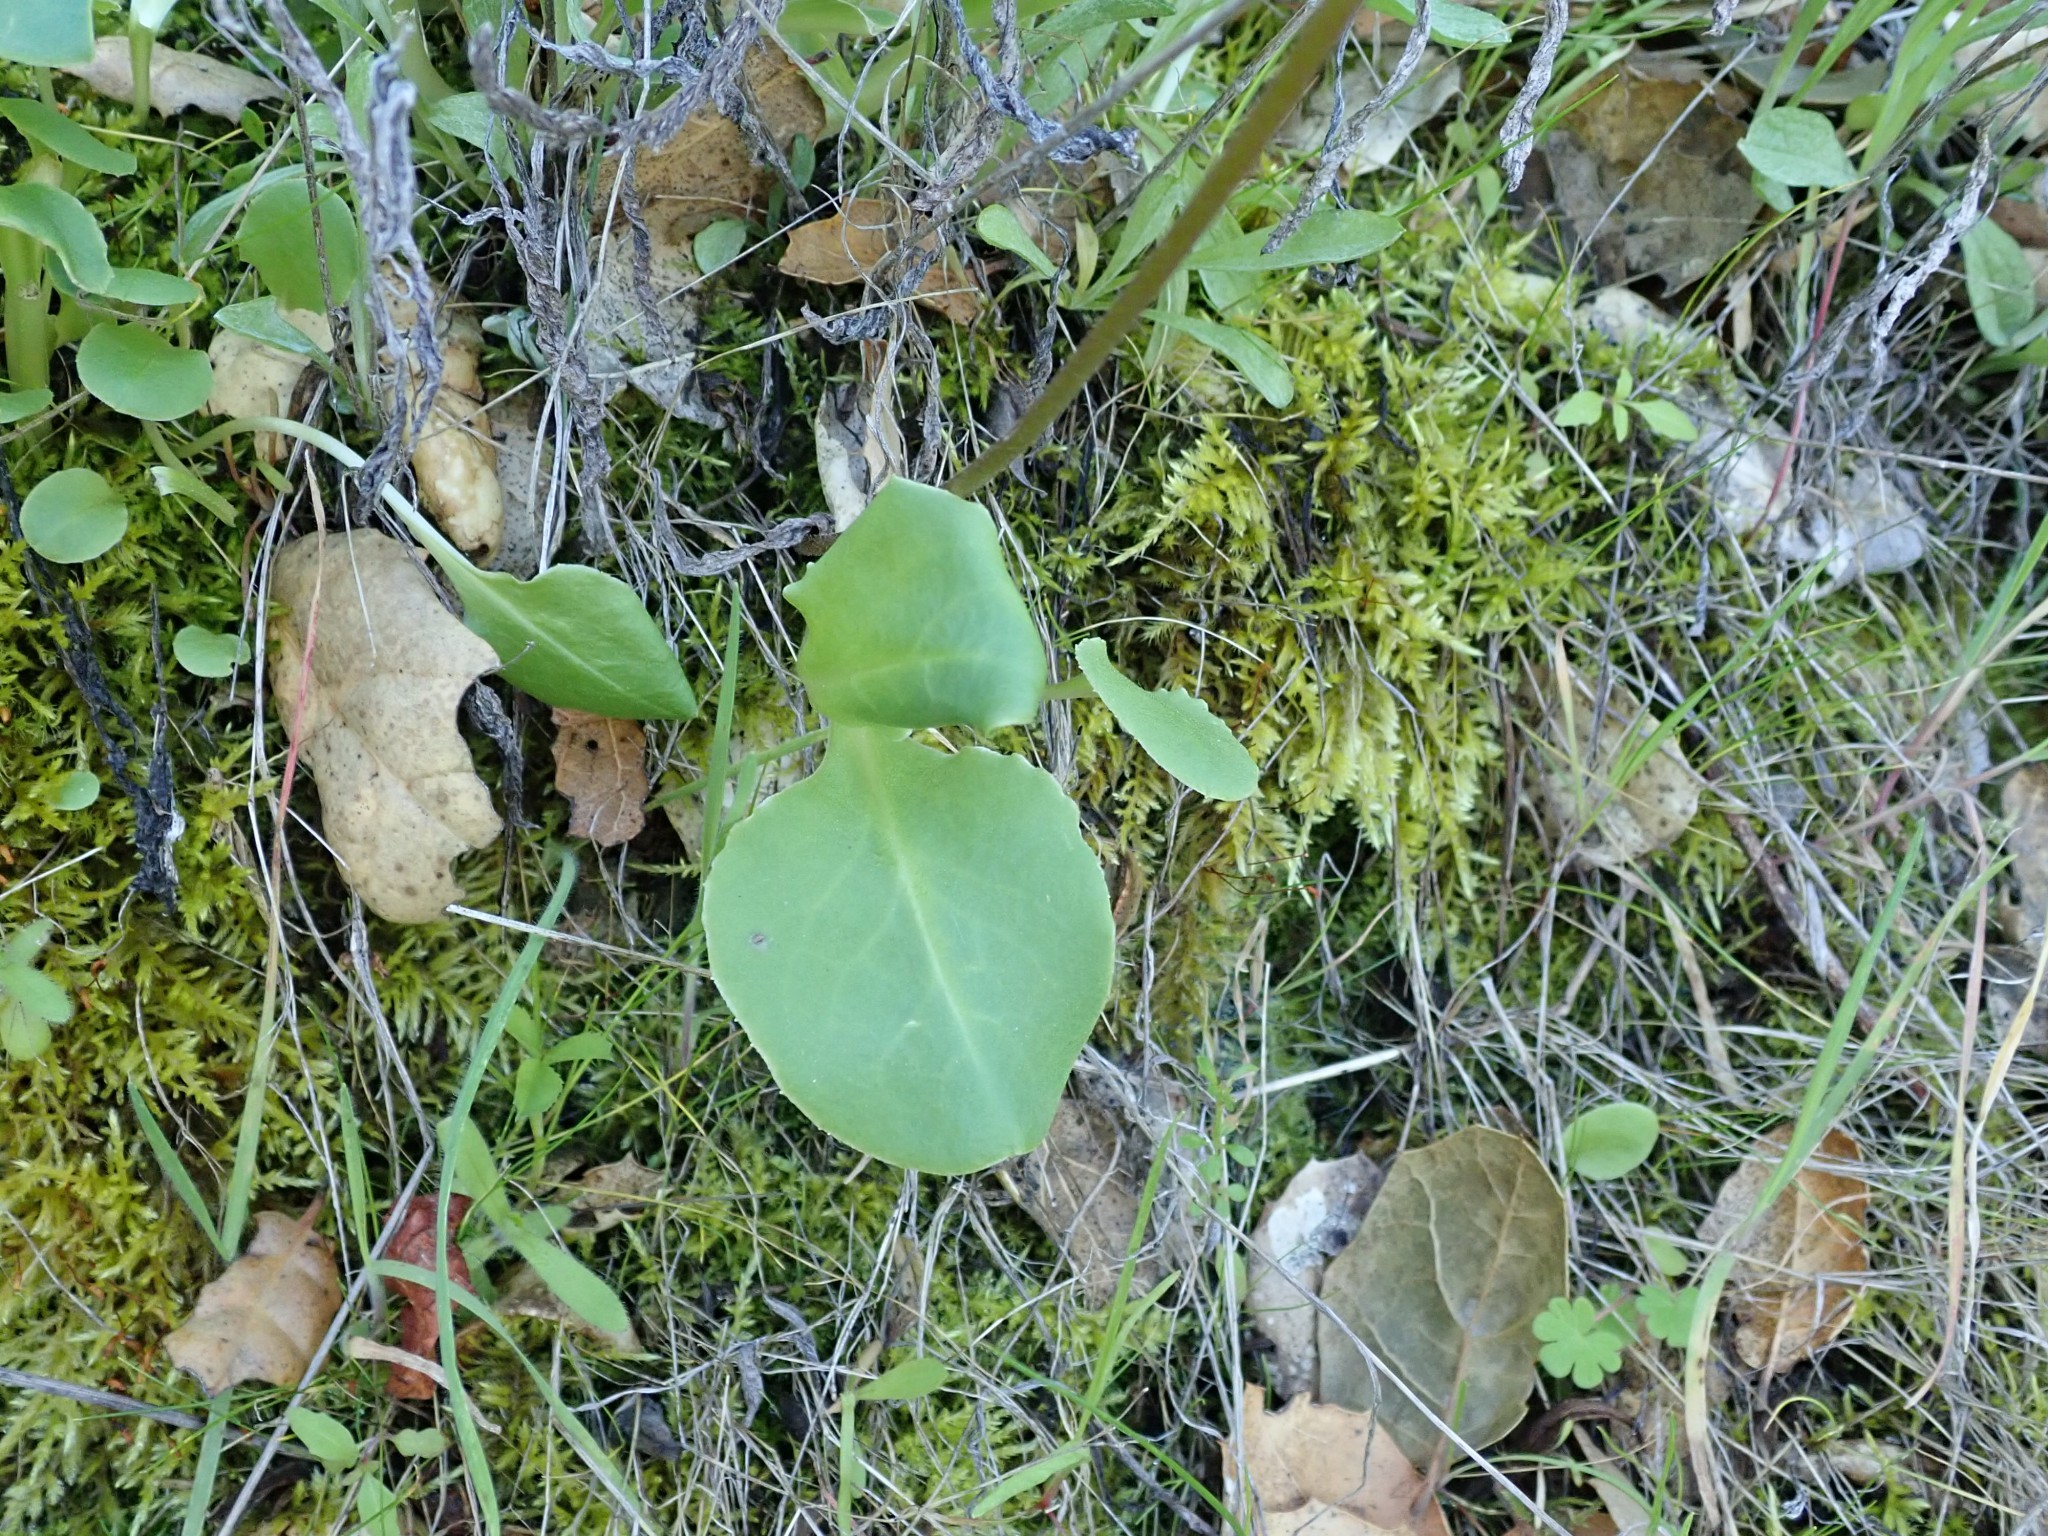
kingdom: Plantae
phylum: Tracheophyta
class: Magnoliopsida
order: Ericales
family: Primulaceae
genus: Dodecatheon
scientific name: Dodecatheon hendersonii
